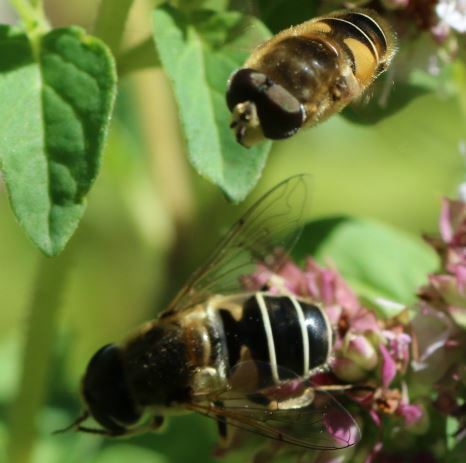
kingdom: Animalia
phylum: Arthropoda
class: Insecta
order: Diptera
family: Syrphidae
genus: Eristalis
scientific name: Eristalis nemorum
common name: Orange-spined drone fly
